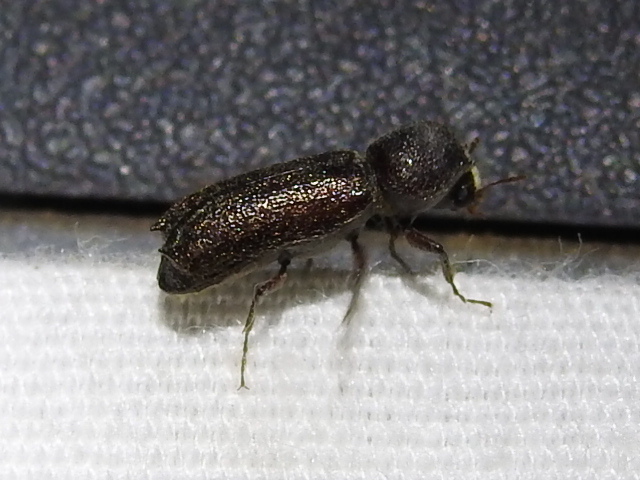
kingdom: Animalia
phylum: Arthropoda
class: Insecta
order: Coleoptera
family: Bostrichidae
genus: Amphicerus
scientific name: Amphicerus cornutus
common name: Powderpost beetle
